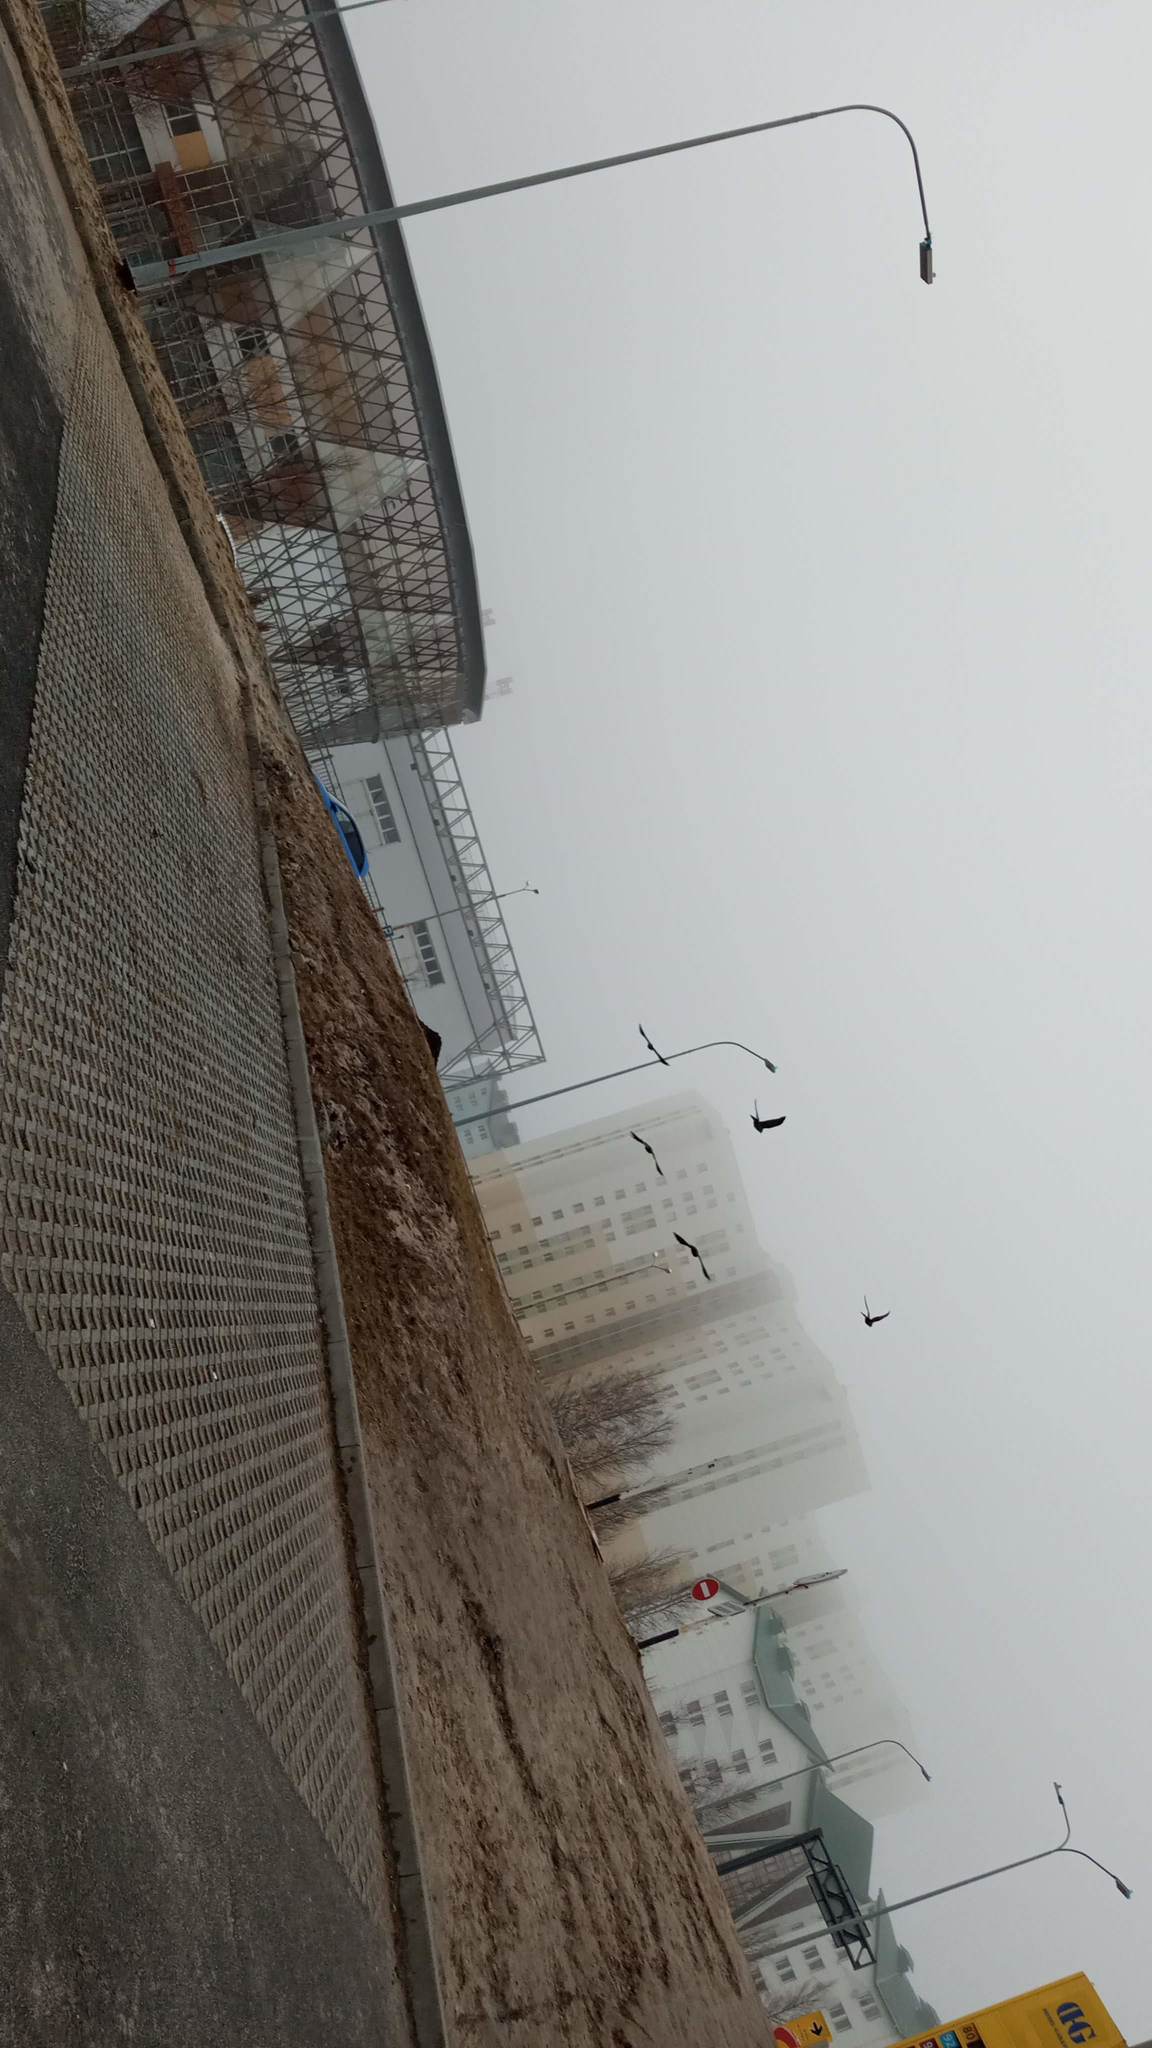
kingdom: Animalia
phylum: Chordata
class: Aves
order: Passeriformes
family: Corvidae
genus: Coloeus
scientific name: Coloeus monedula
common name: Western jackdaw
